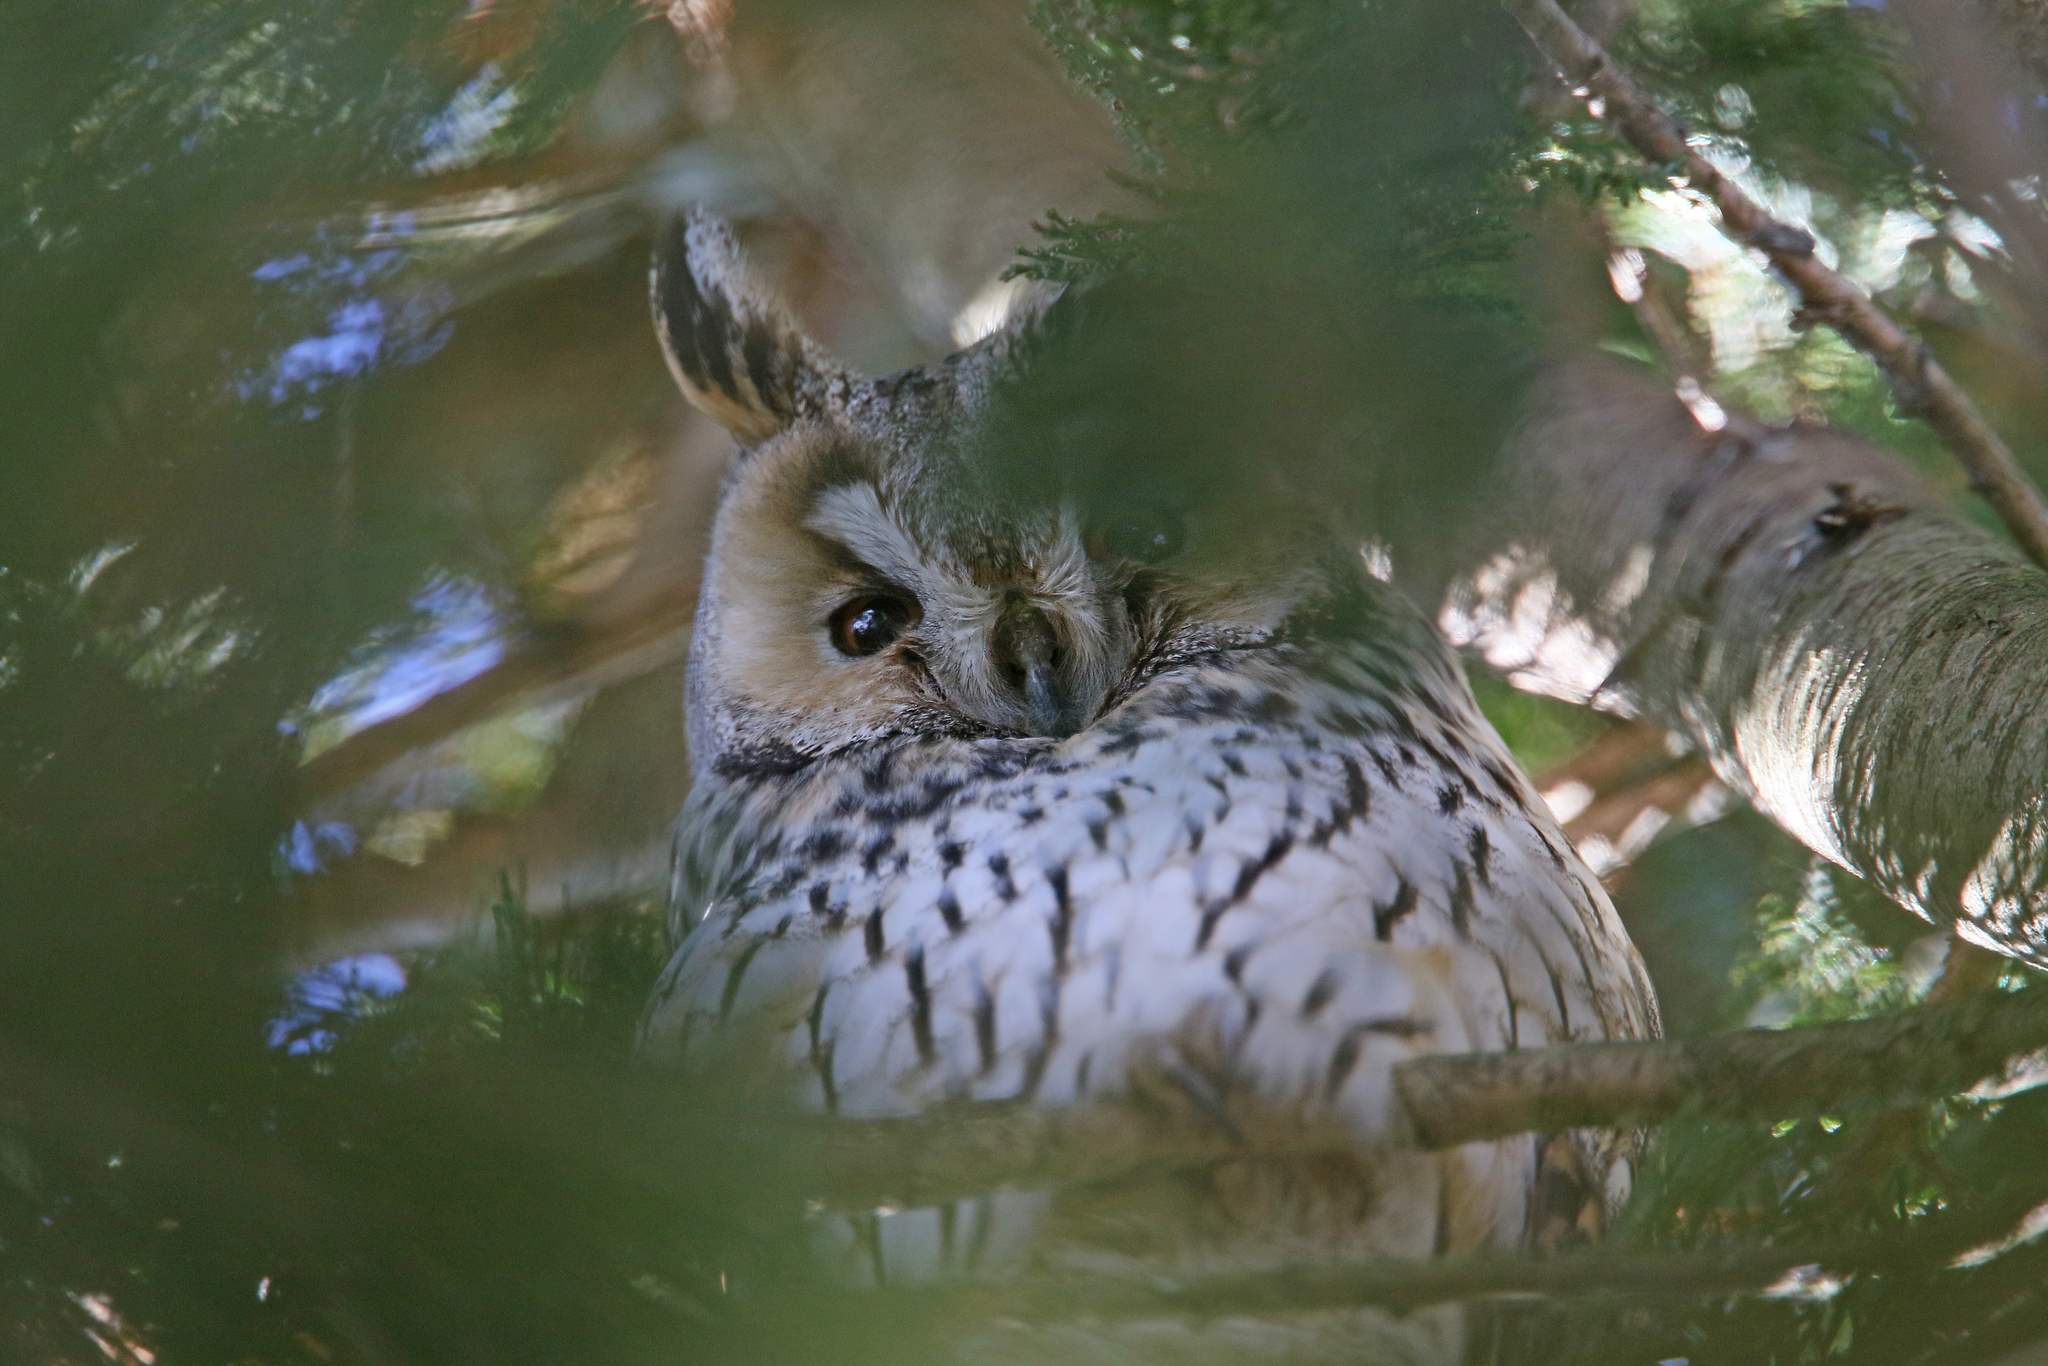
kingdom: Animalia
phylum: Chordata
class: Aves
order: Strigiformes
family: Strigidae
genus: Asio
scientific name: Asio otus
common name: Long-eared owl
